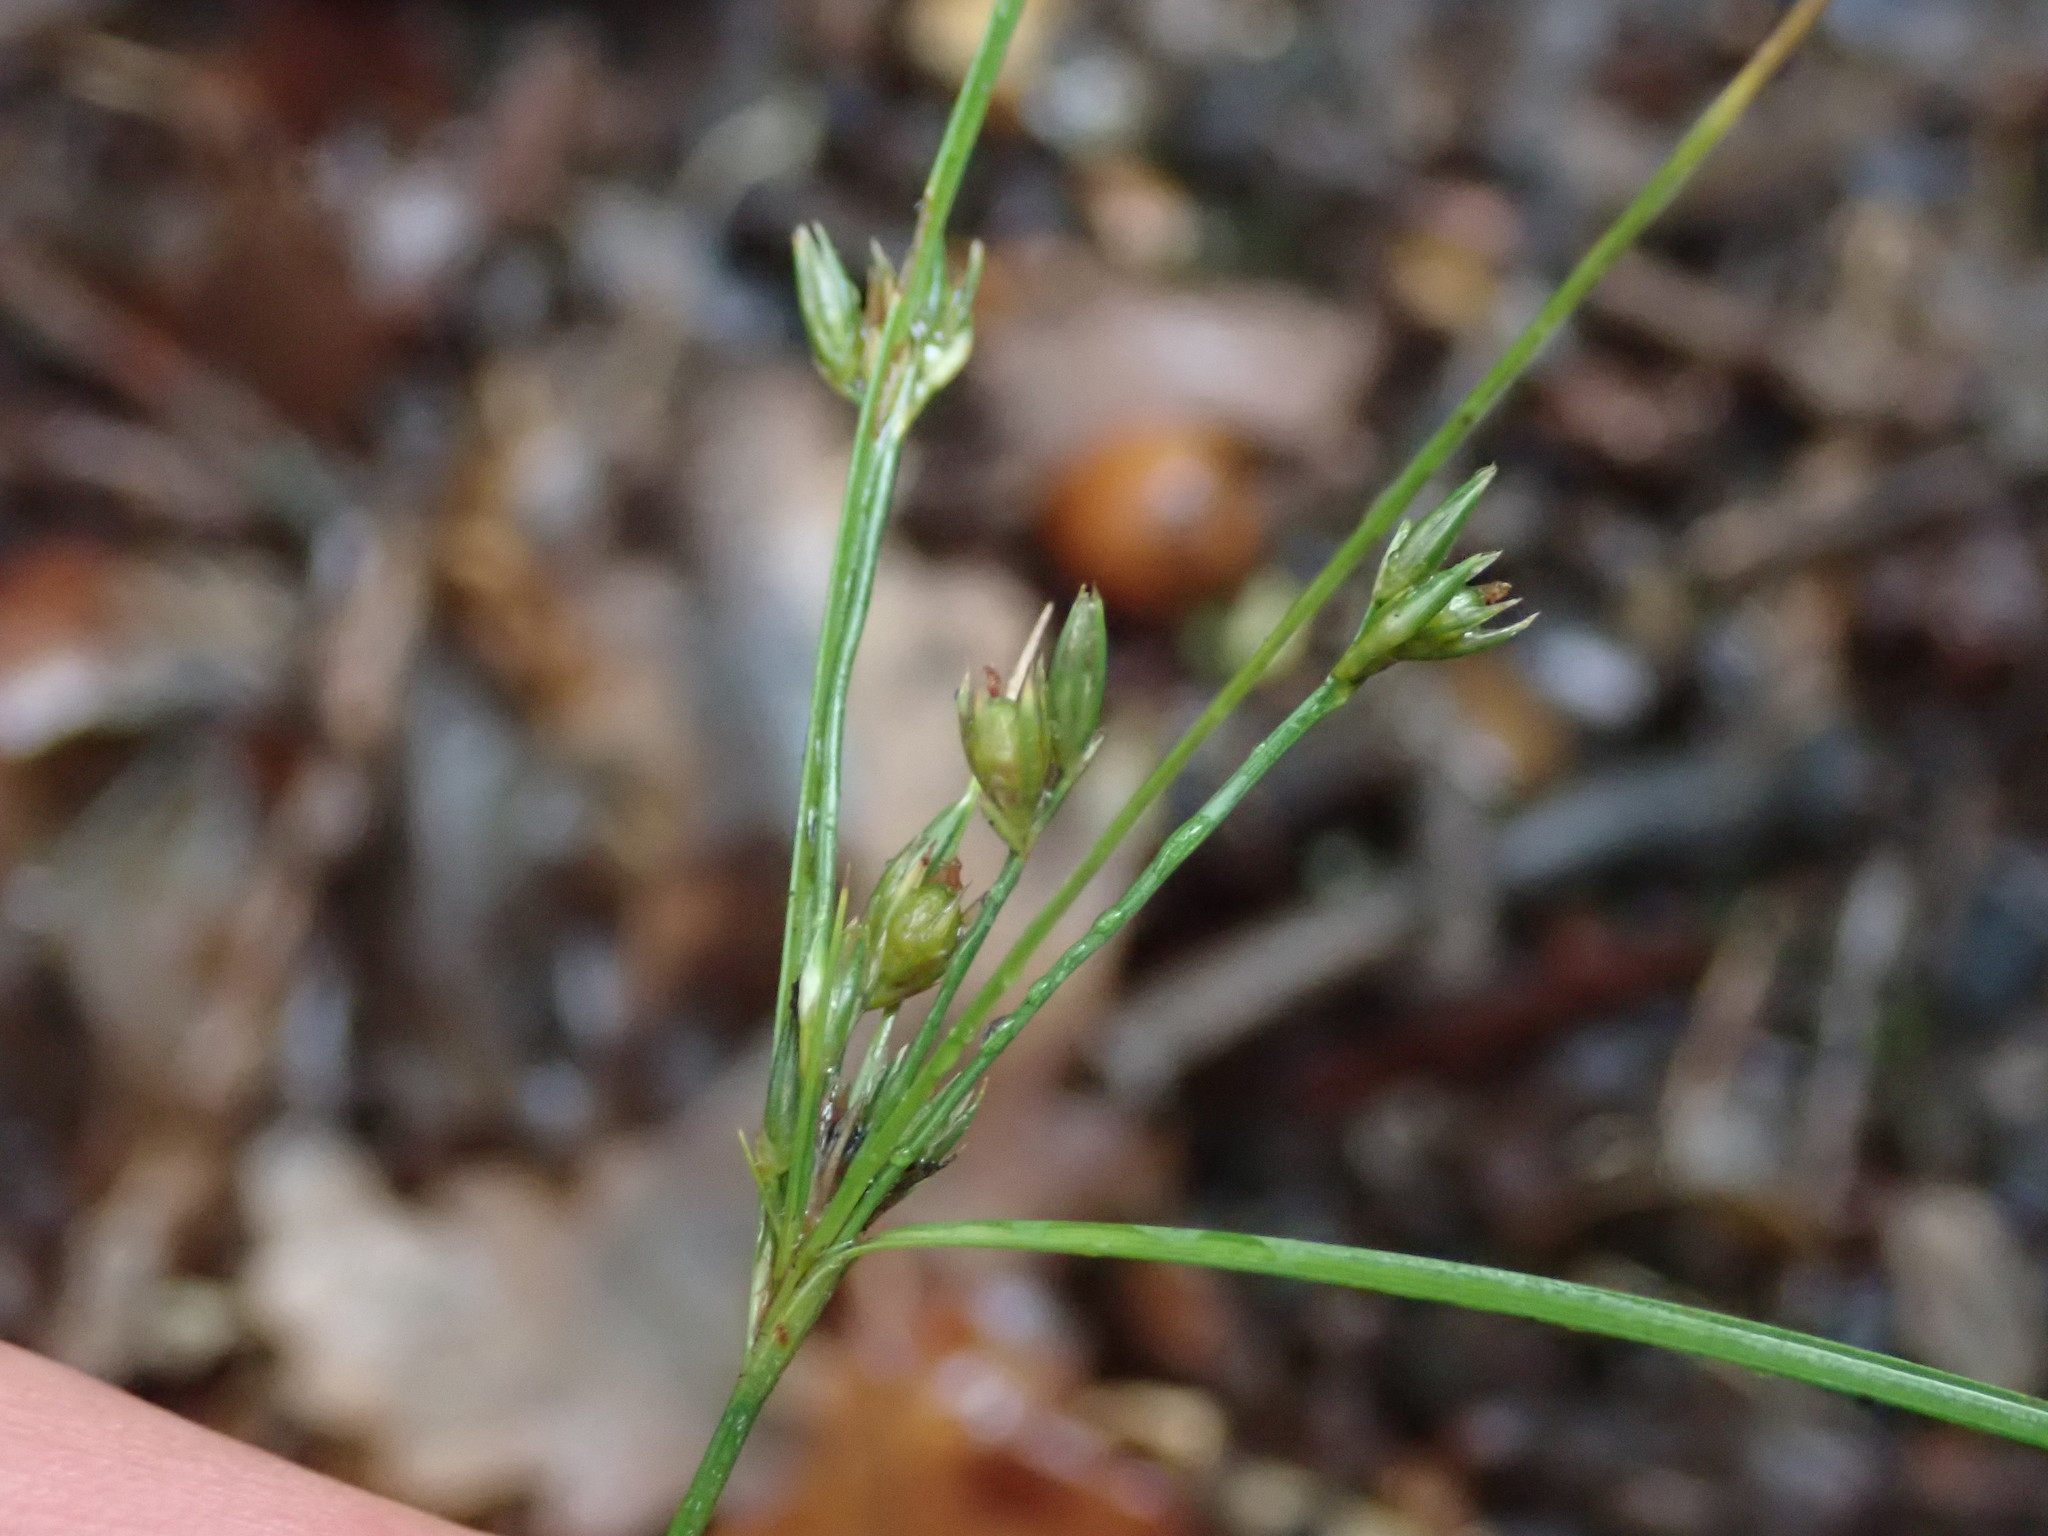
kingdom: Plantae
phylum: Tracheophyta
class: Liliopsida
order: Poales
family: Juncaceae
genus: Juncus
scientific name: Juncus tenuis
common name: Slender rush
